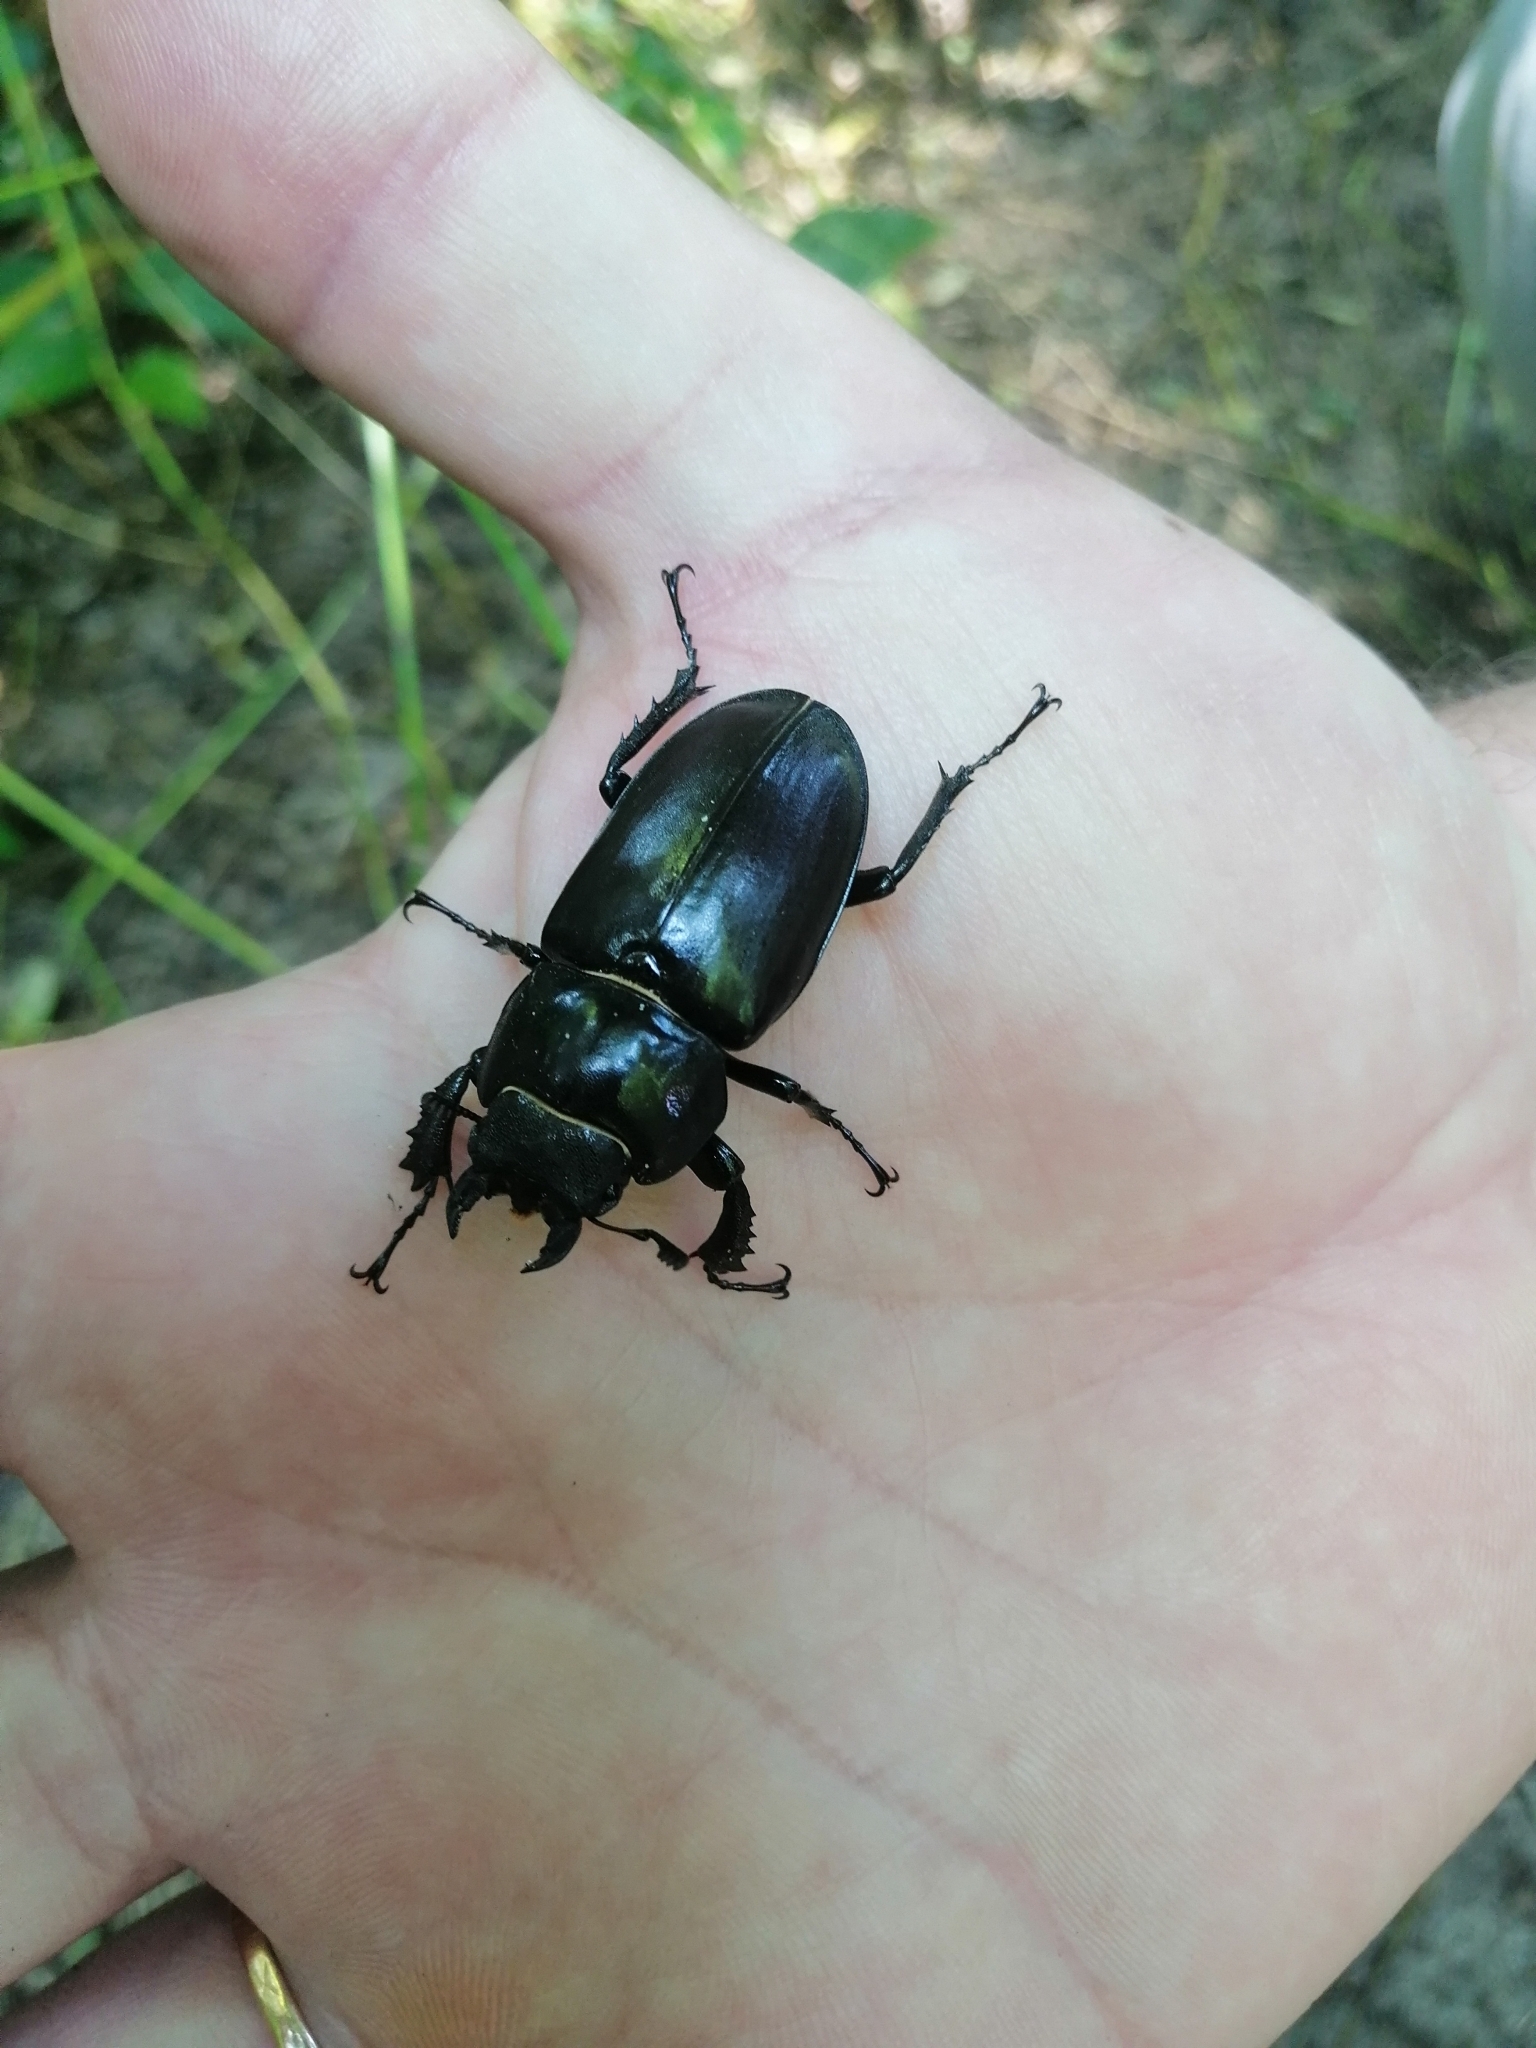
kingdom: Animalia
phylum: Arthropoda
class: Insecta
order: Coleoptera
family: Lucanidae
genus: Lucanus
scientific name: Lucanus cervus
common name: Stag beetle
